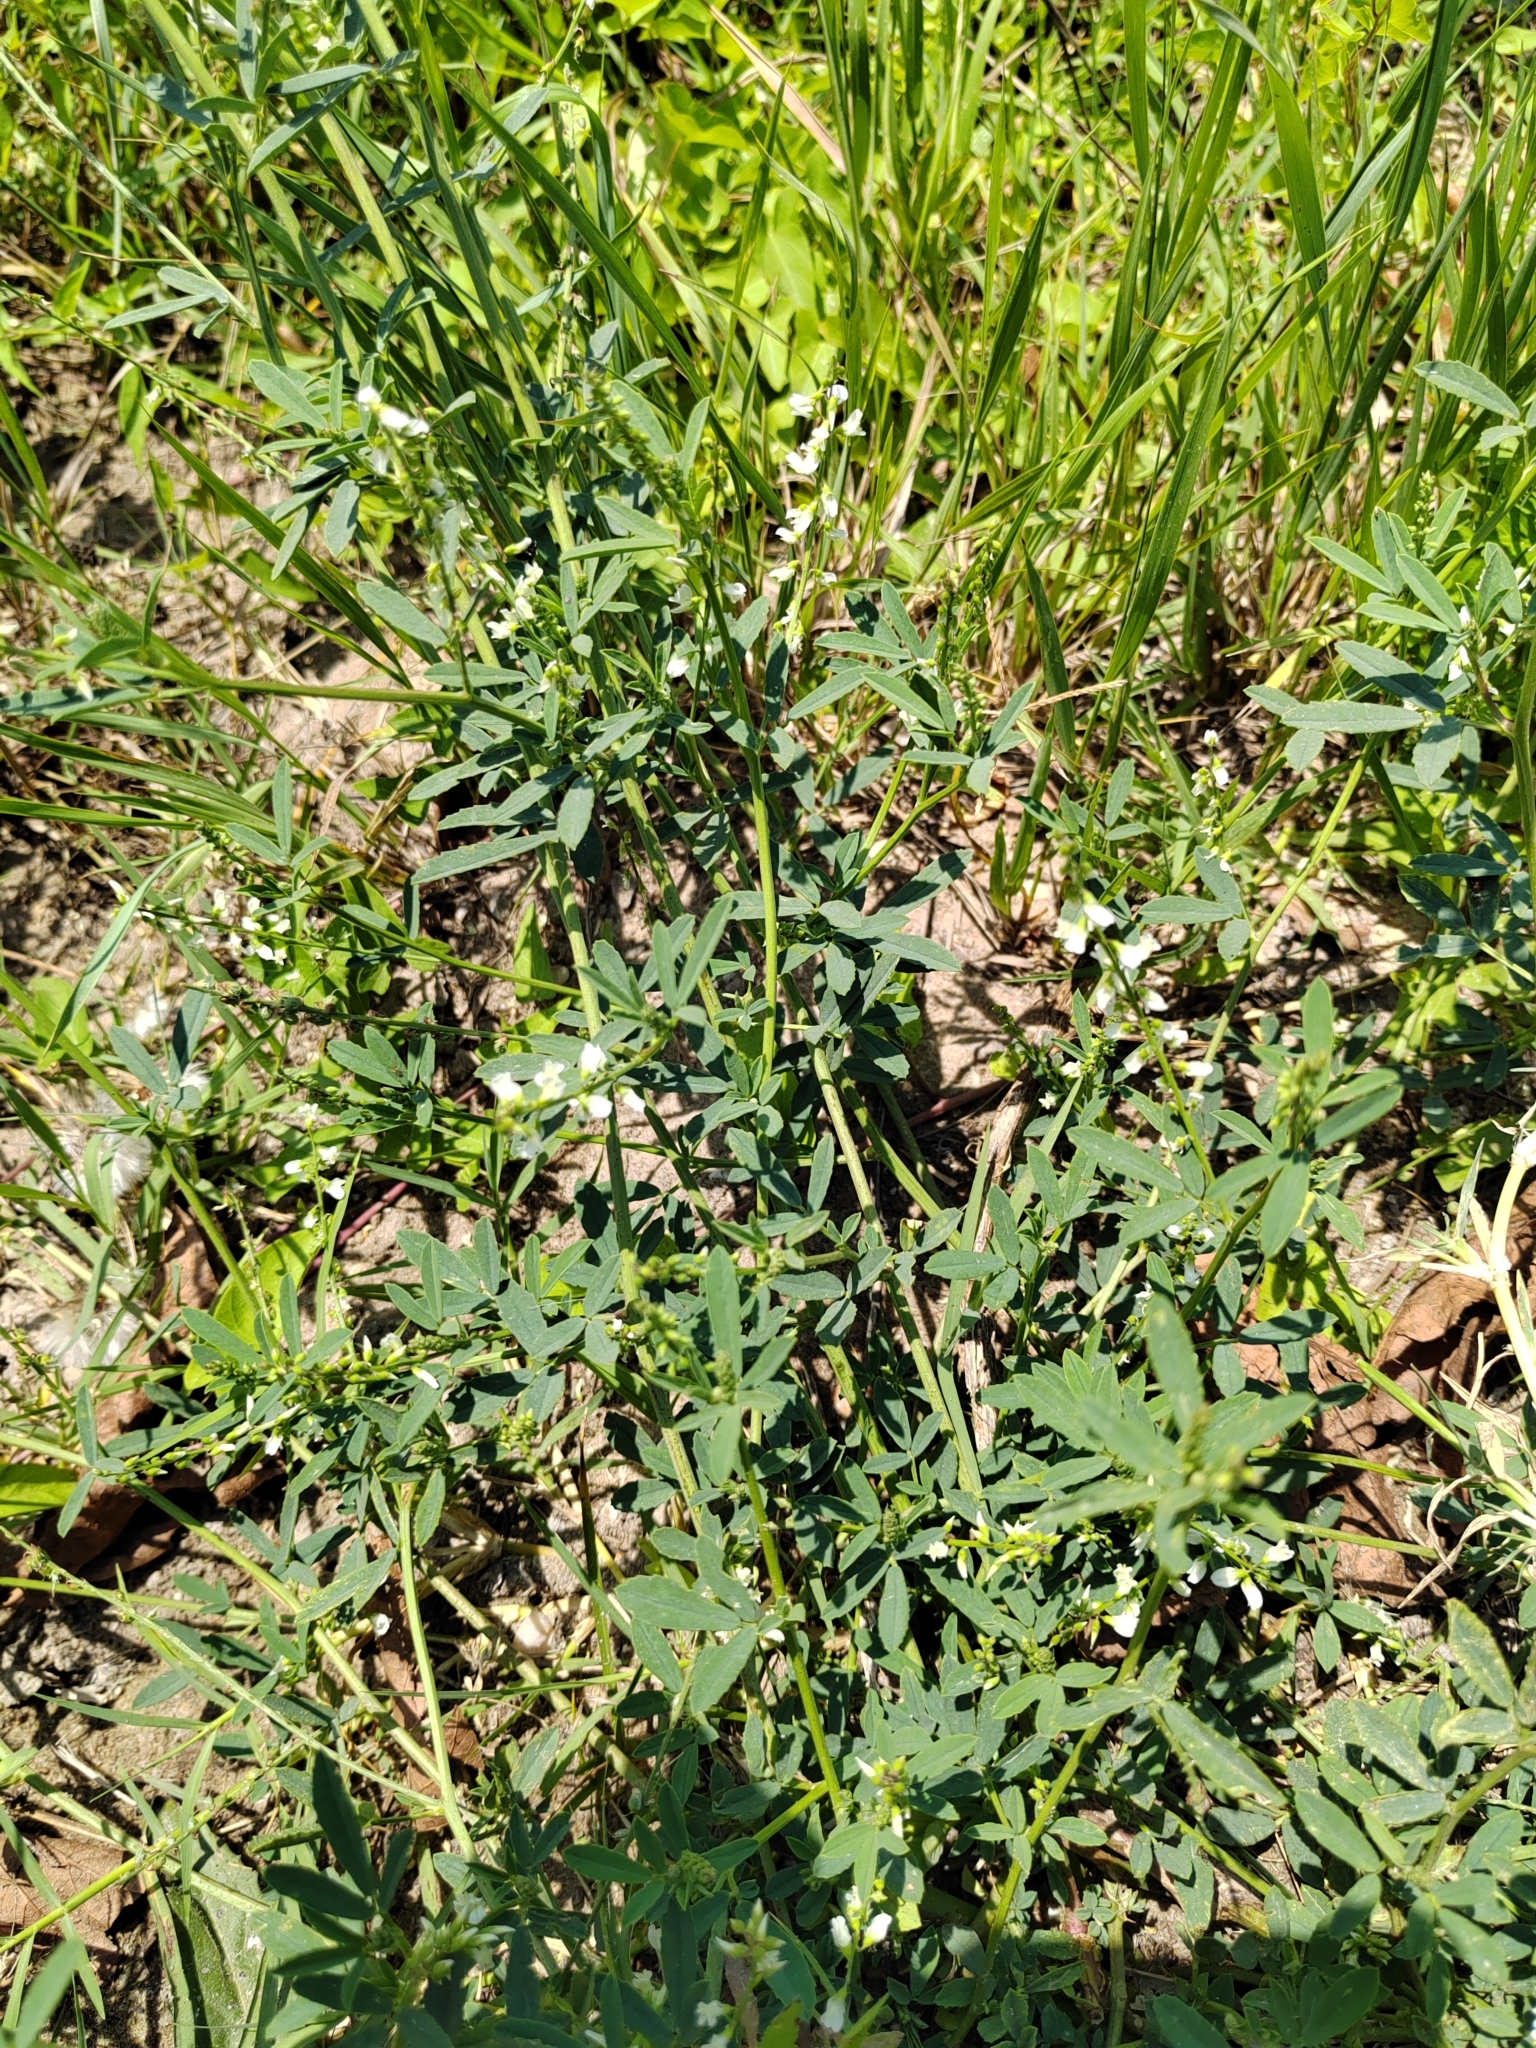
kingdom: Plantae
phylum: Tracheophyta
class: Magnoliopsida
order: Fabales
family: Fabaceae
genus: Melilotus
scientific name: Melilotus albus
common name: White melilot
